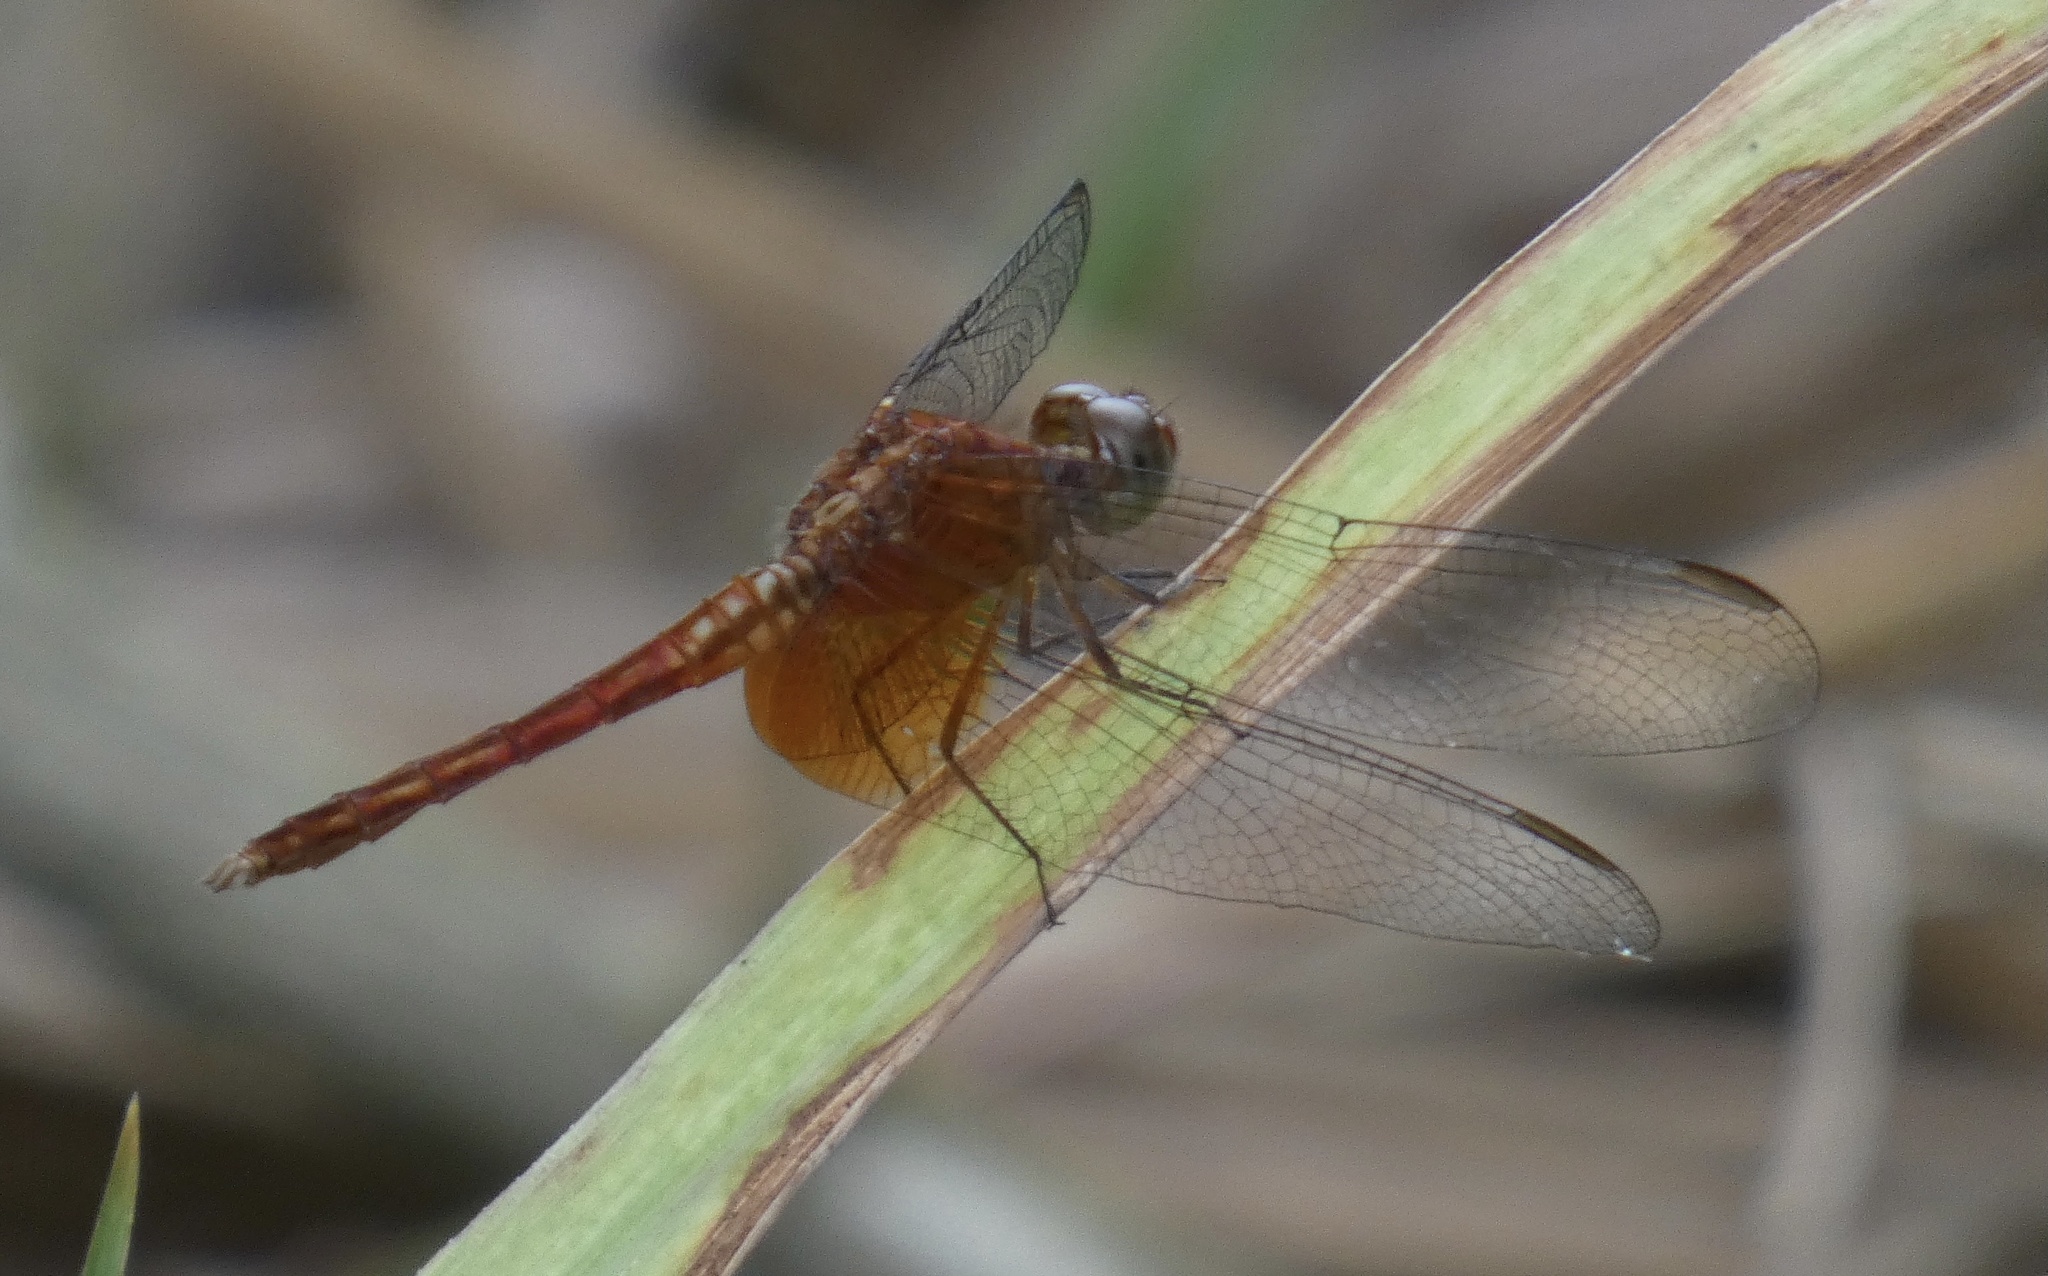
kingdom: Animalia
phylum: Arthropoda
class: Insecta
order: Odonata
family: Libellulidae
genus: Erythrodiplax
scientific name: Erythrodiplax ochracea
